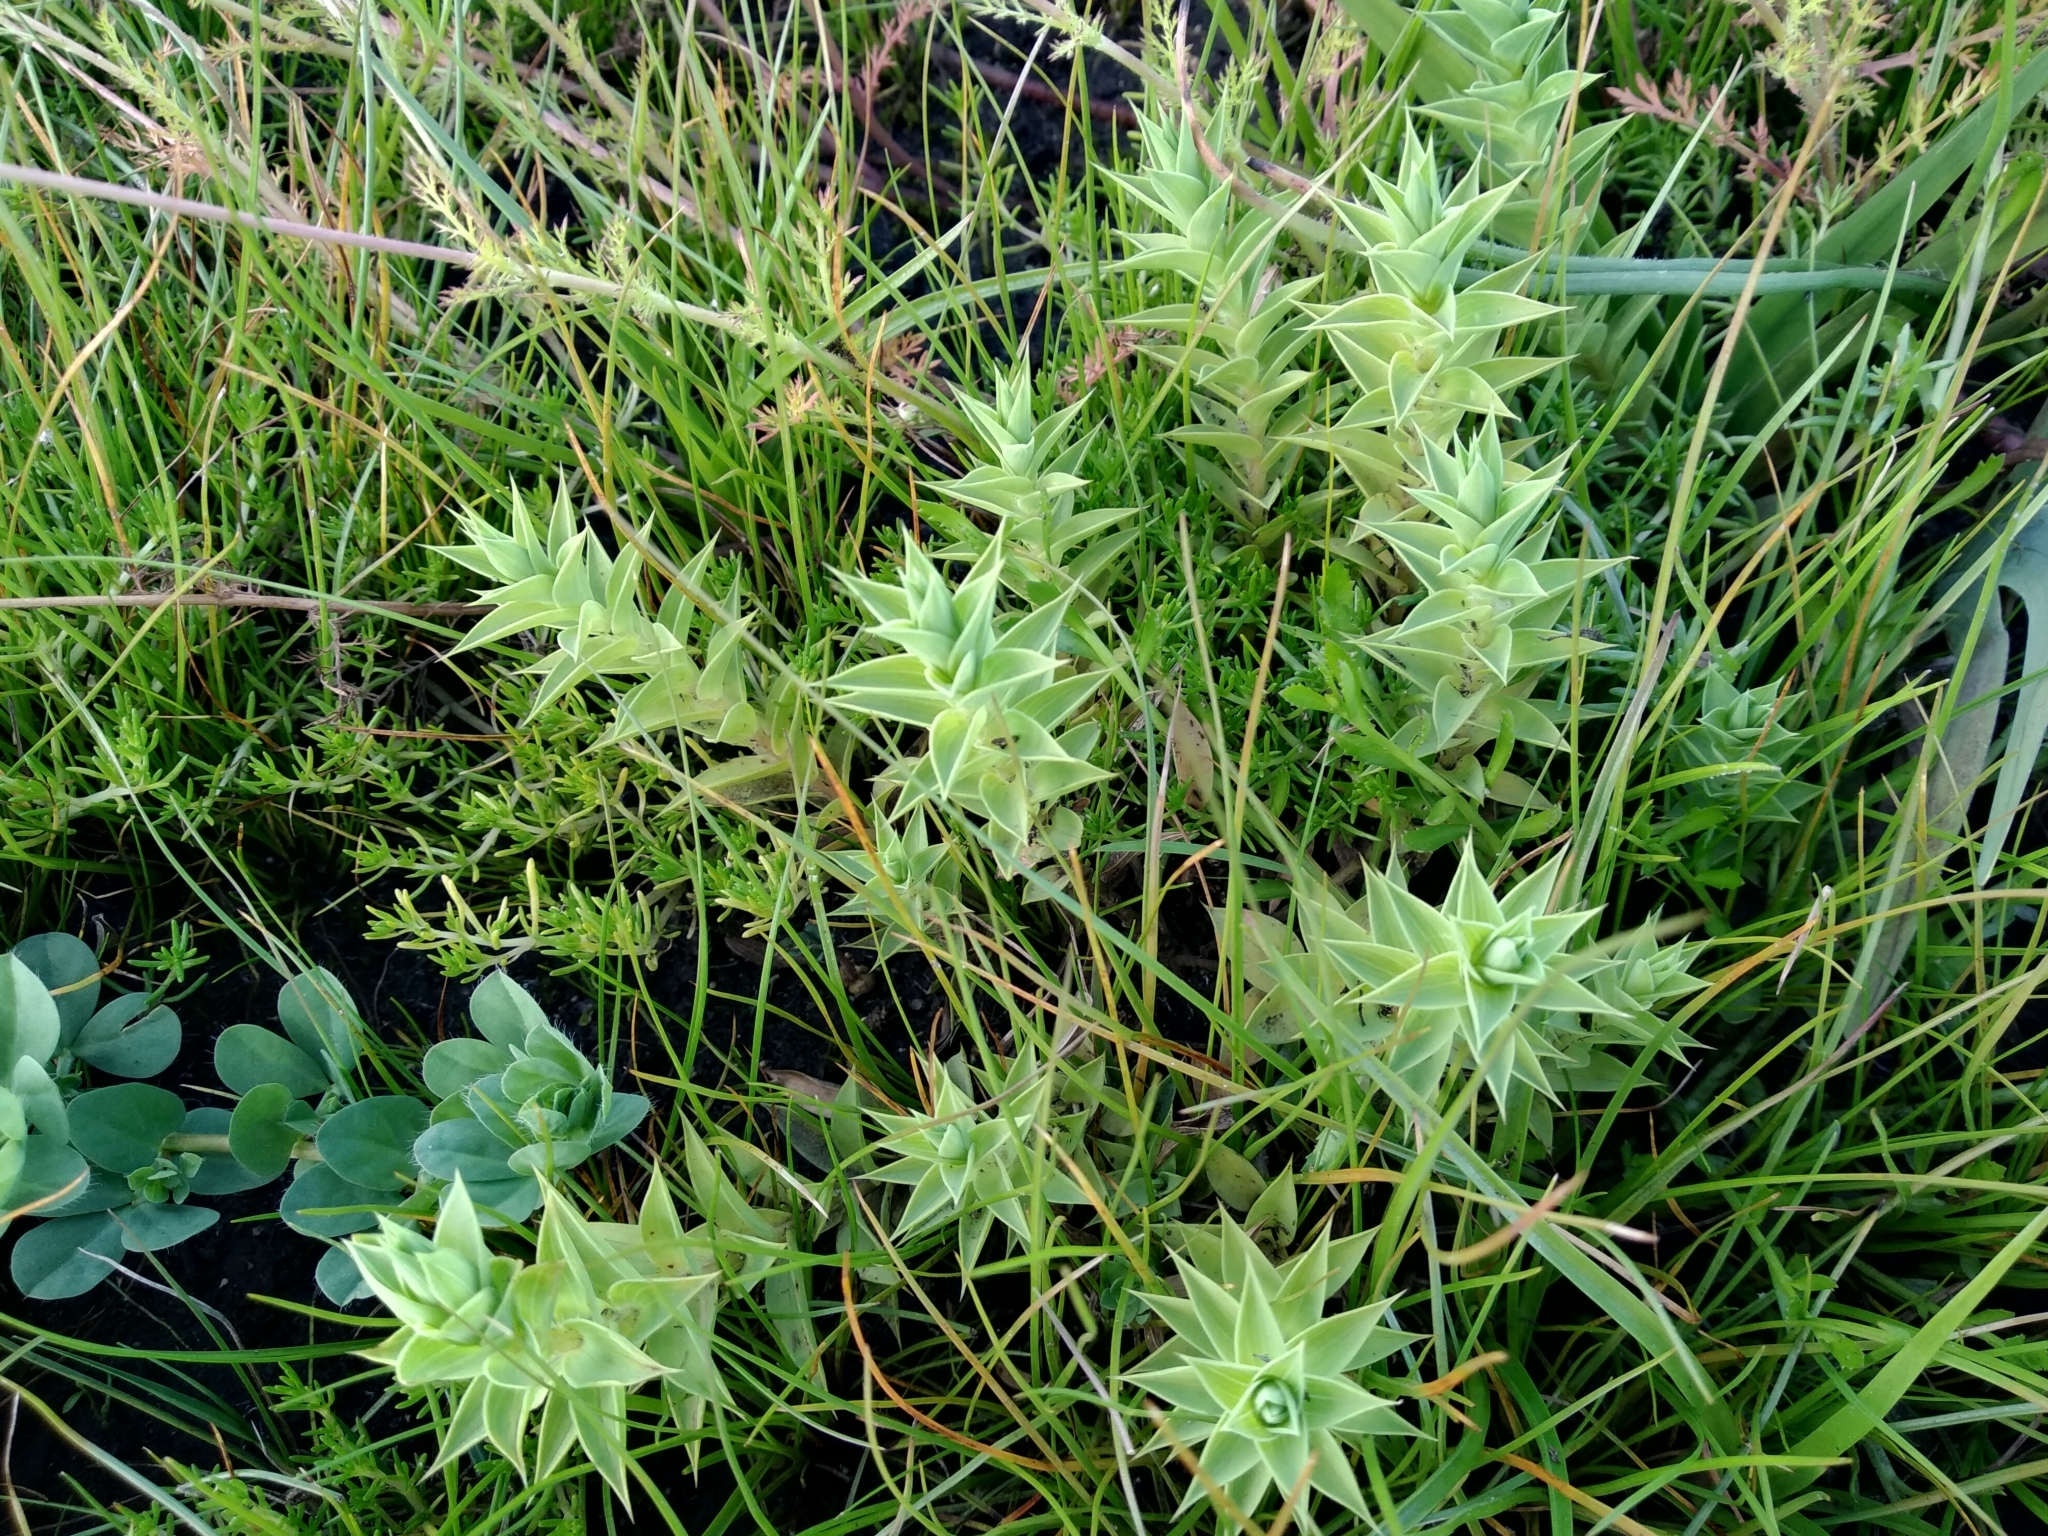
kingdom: Plantae
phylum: Tracheophyta
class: Magnoliopsida
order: Fabales
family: Fabaceae
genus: Aspalathus
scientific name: Aspalathus cordata
